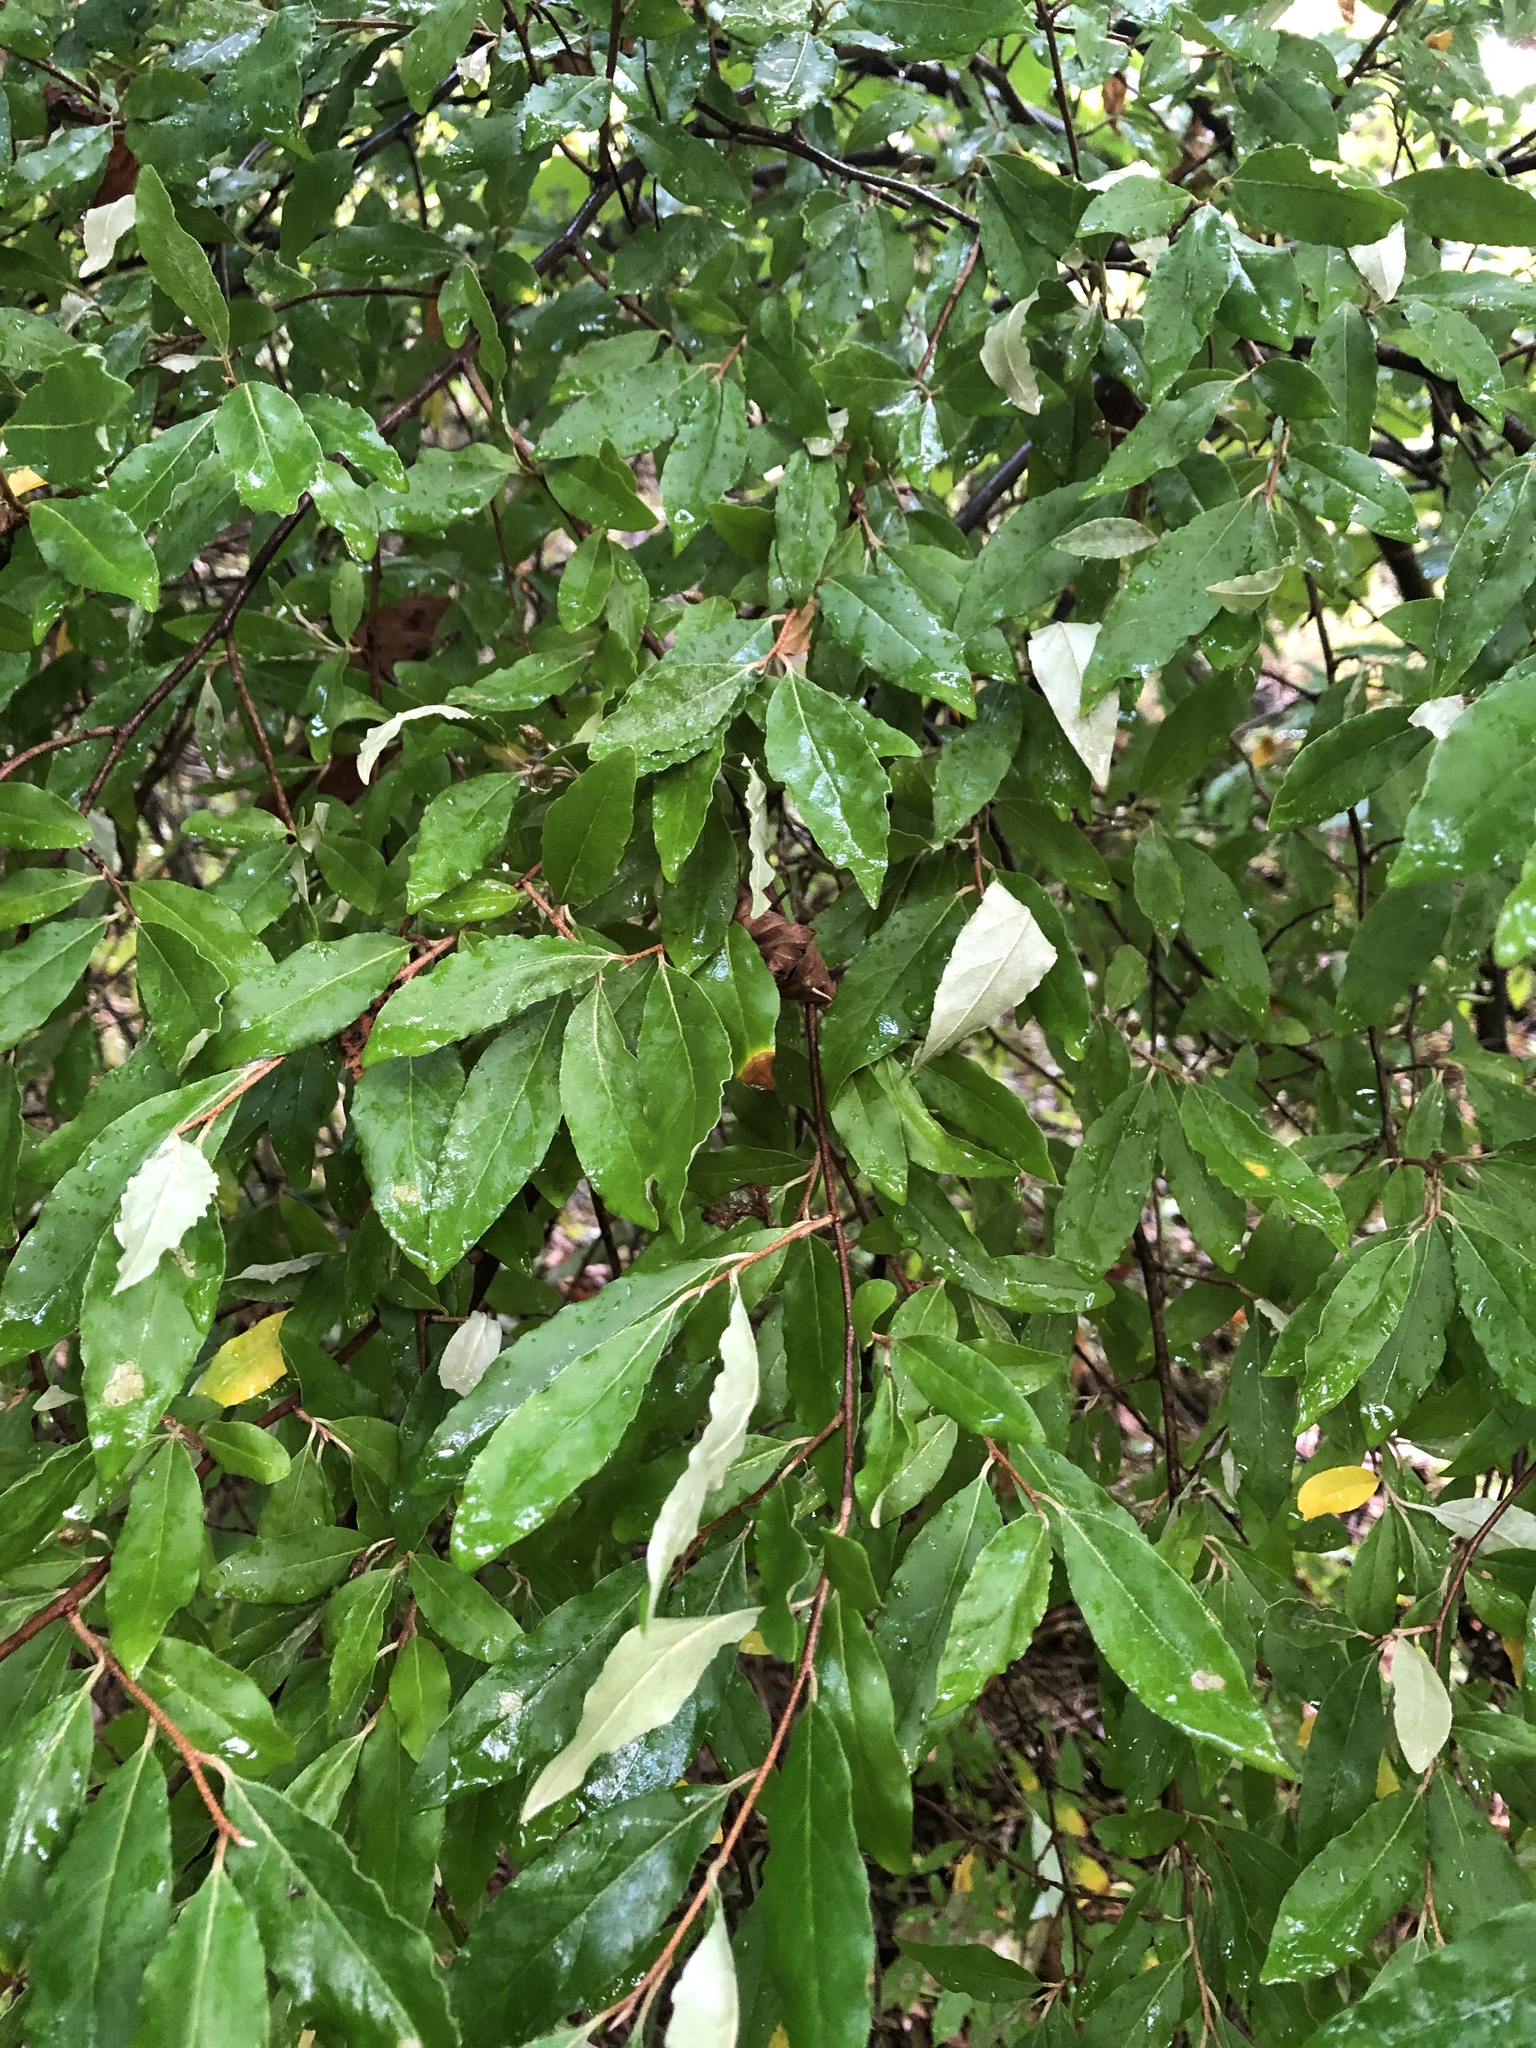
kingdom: Plantae
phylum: Tracheophyta
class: Magnoliopsida
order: Rosales
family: Elaeagnaceae
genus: Elaeagnus
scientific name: Elaeagnus umbellata
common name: Autumn olive
